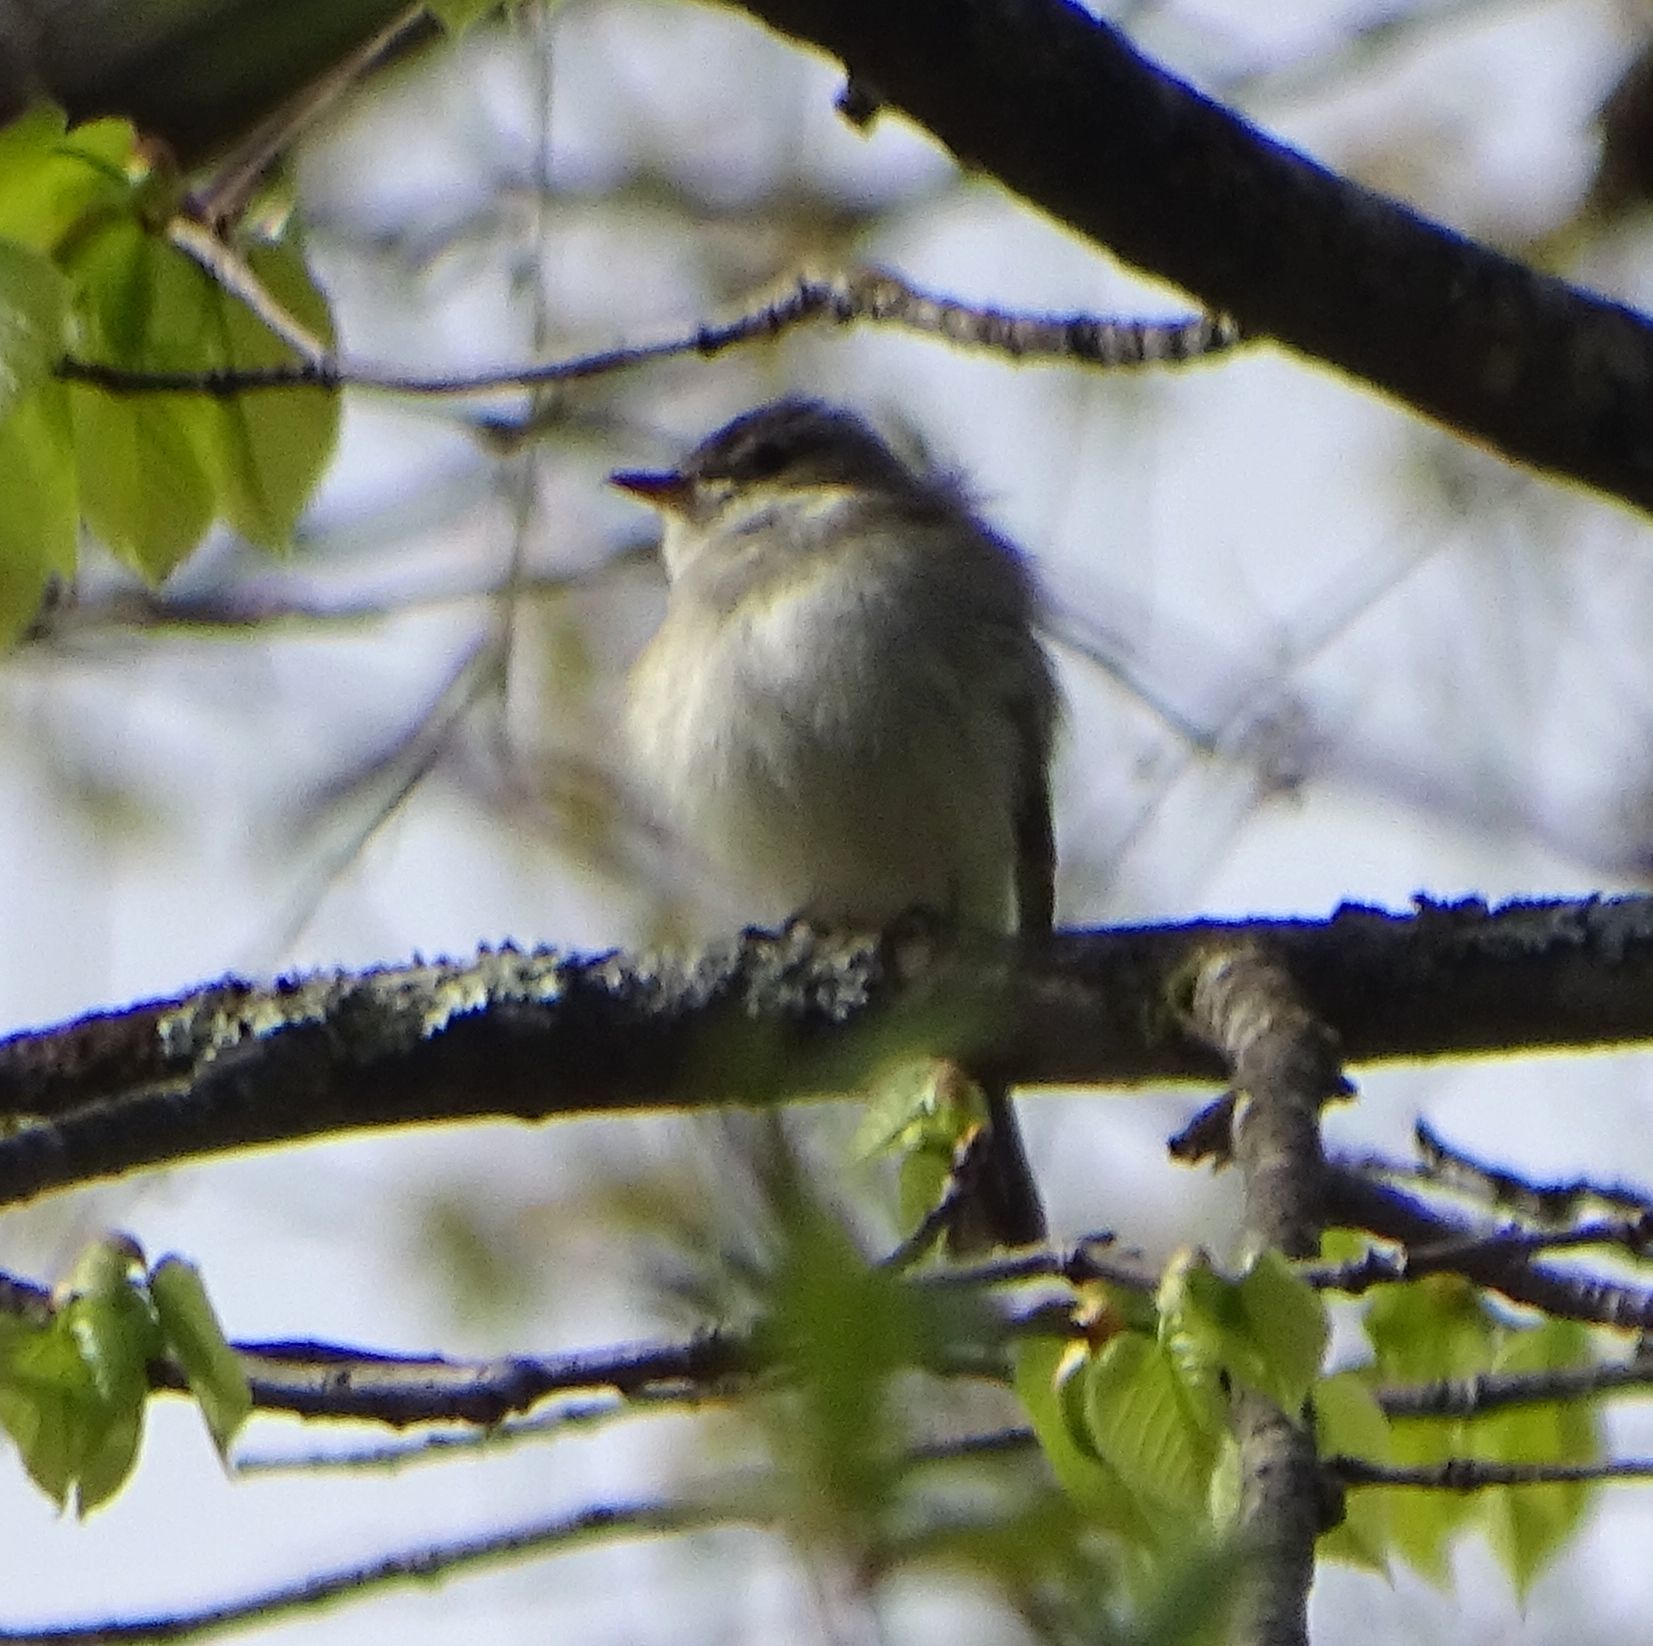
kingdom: Animalia
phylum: Chordata
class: Aves
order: Passeriformes
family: Tyrannidae
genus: Empidonax
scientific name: Empidonax minimus
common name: Least flycatcher
